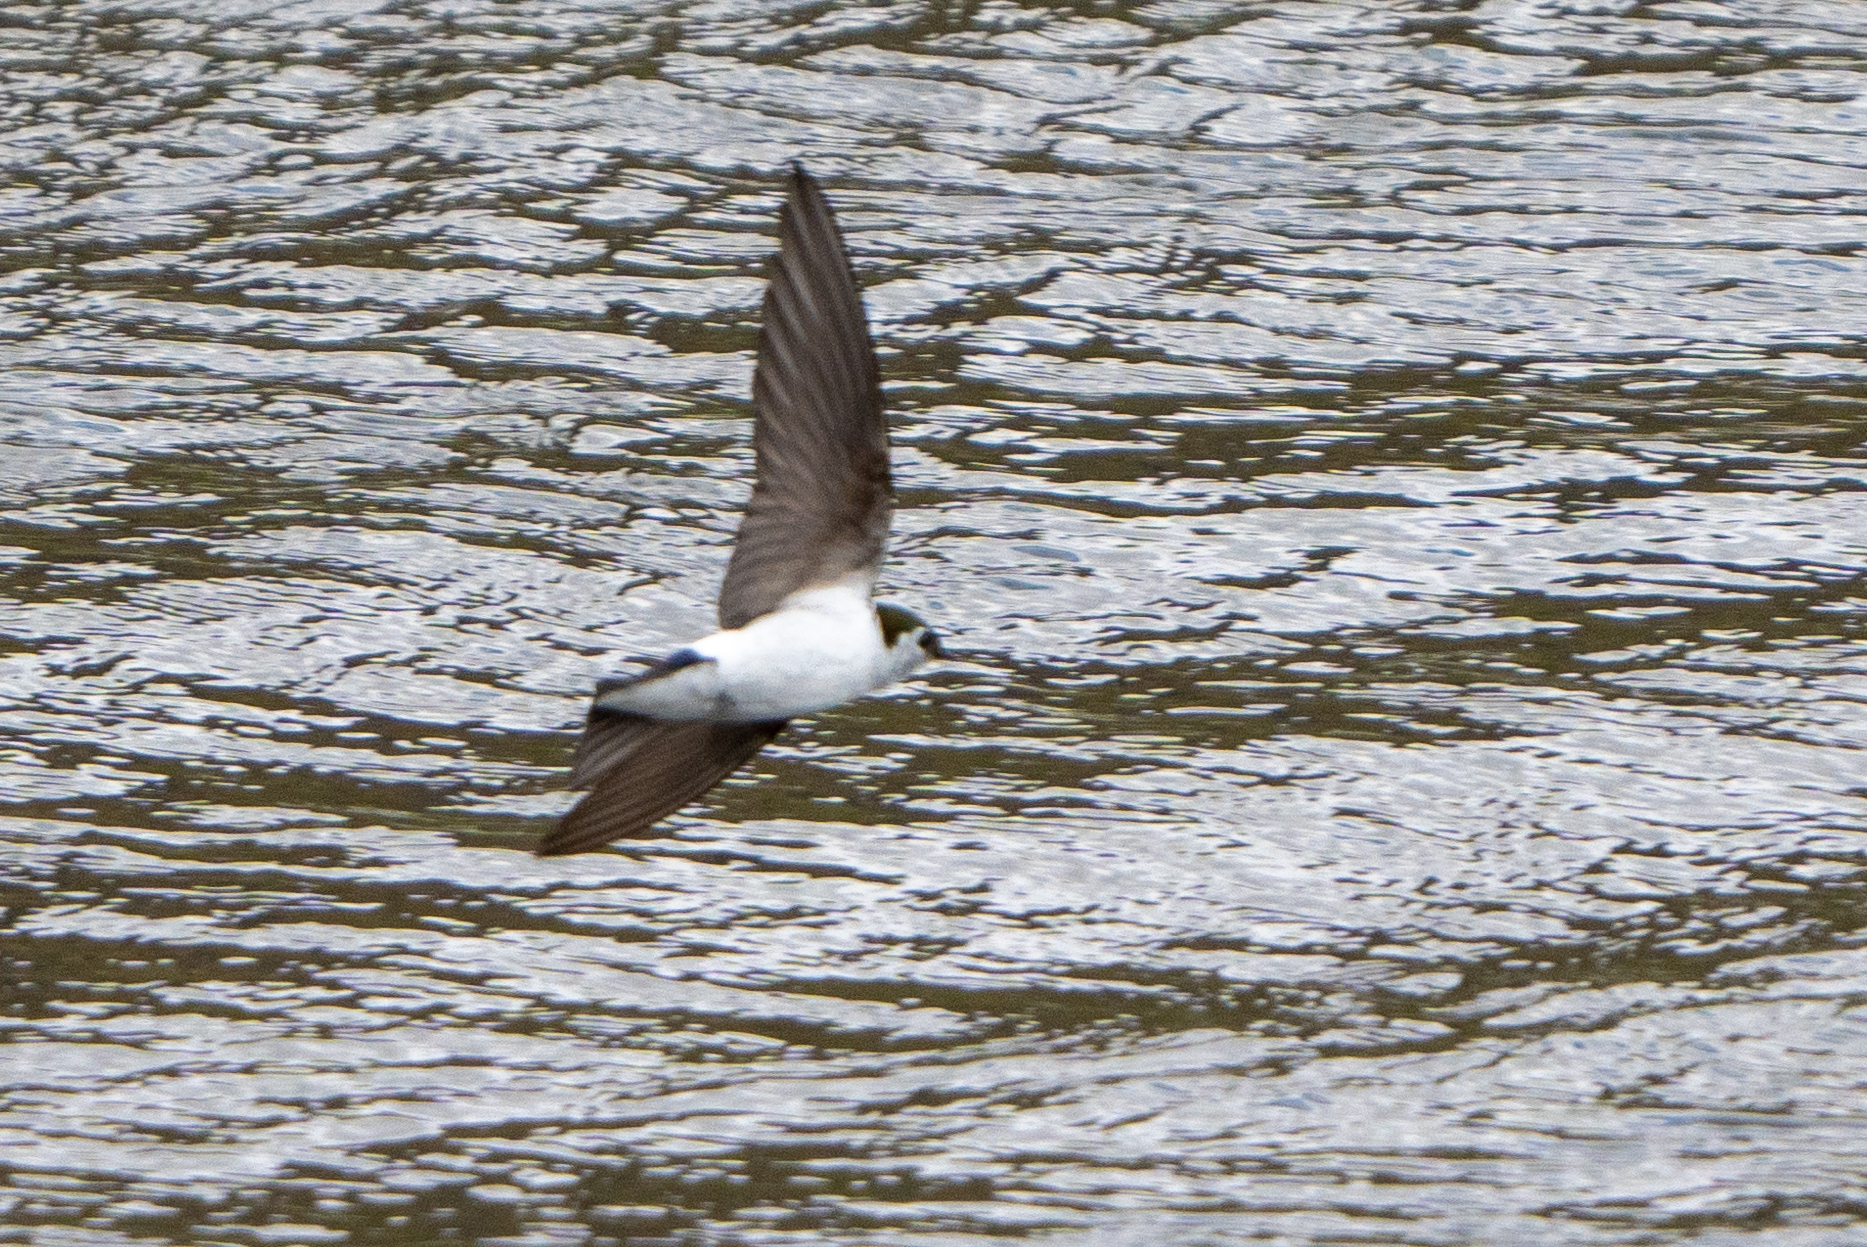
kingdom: Animalia
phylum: Chordata
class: Aves
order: Passeriformes
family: Hirundinidae
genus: Tachycineta
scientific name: Tachycineta thalassina
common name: Violet-green swallow
